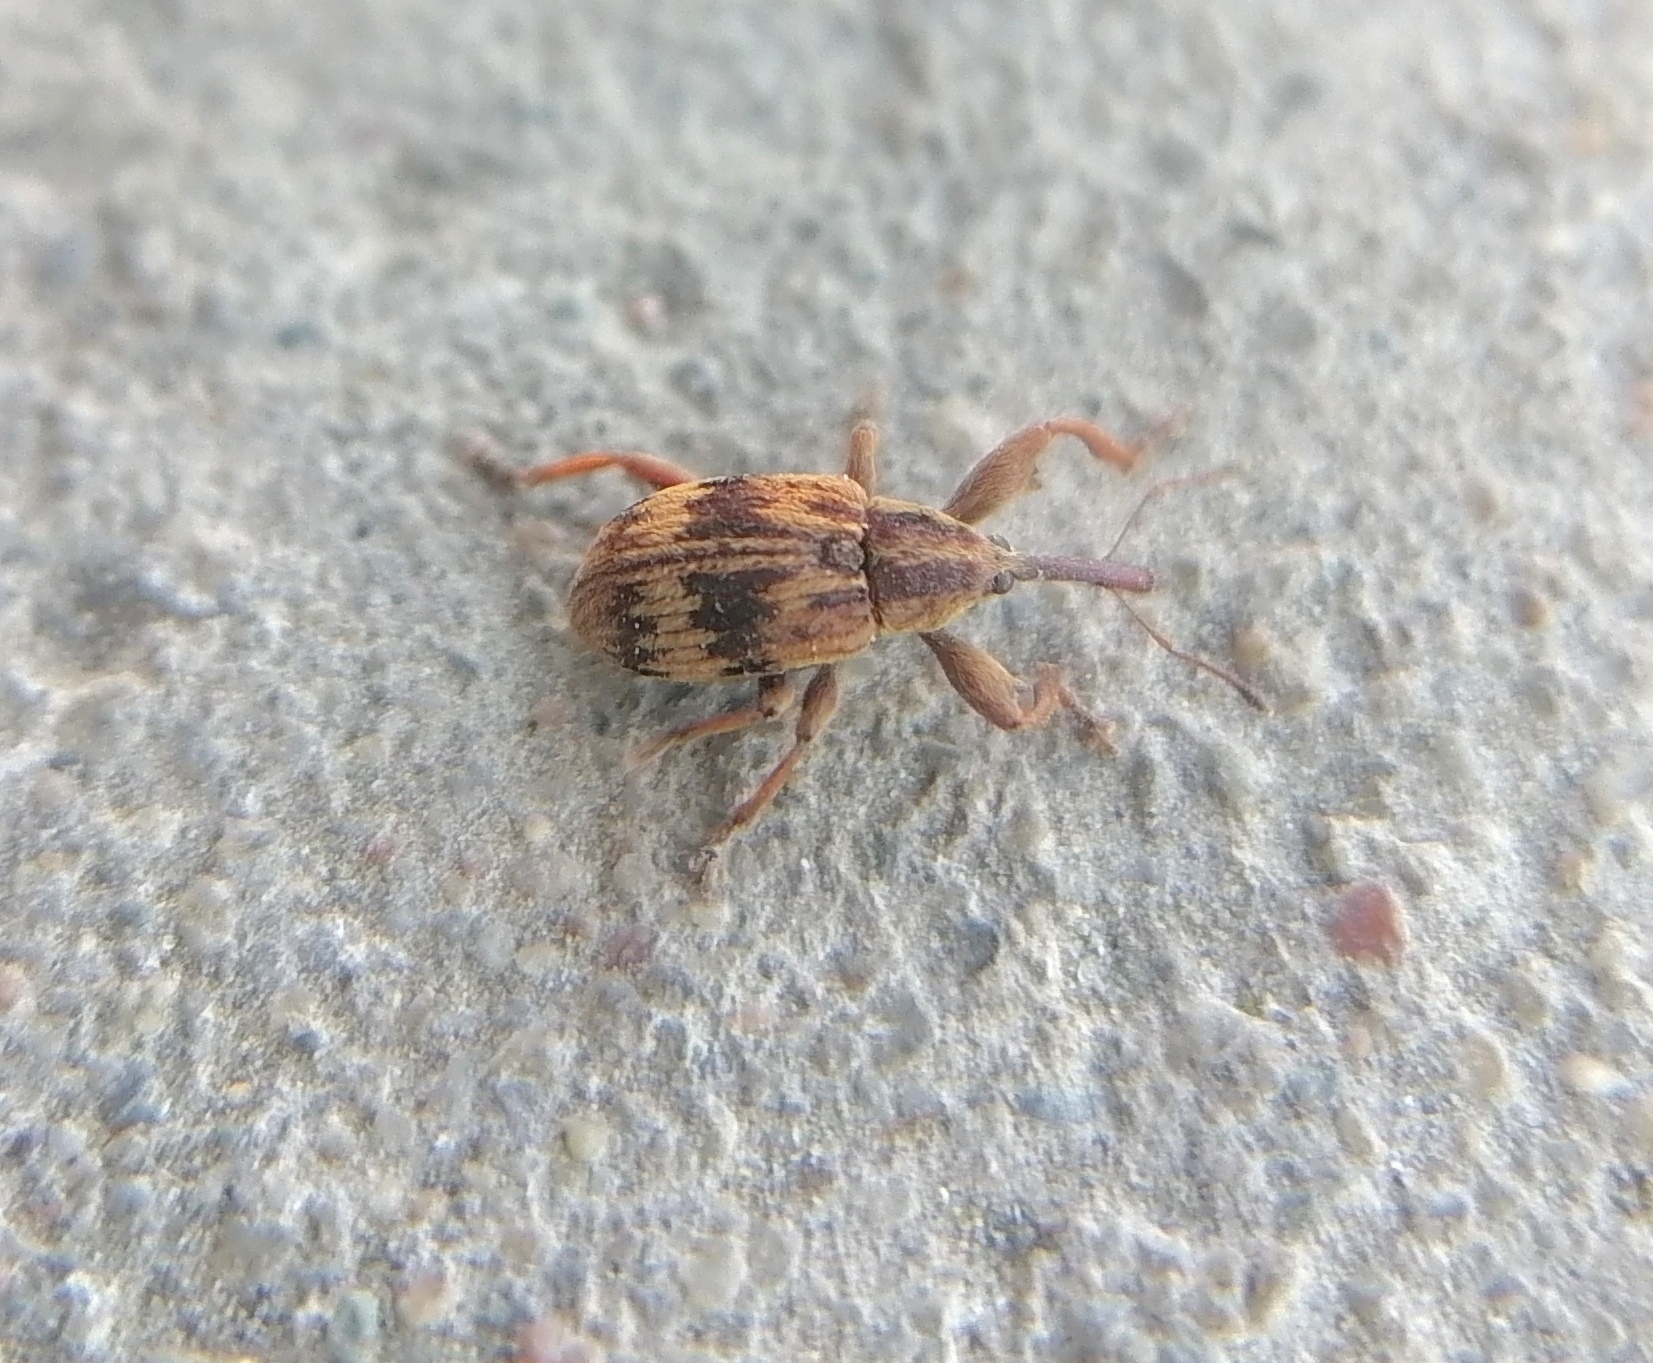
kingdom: Animalia
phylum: Arthropoda
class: Insecta
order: Coleoptera
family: Curculionidae
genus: Anthonomus
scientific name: Anthonomus rectirostris
